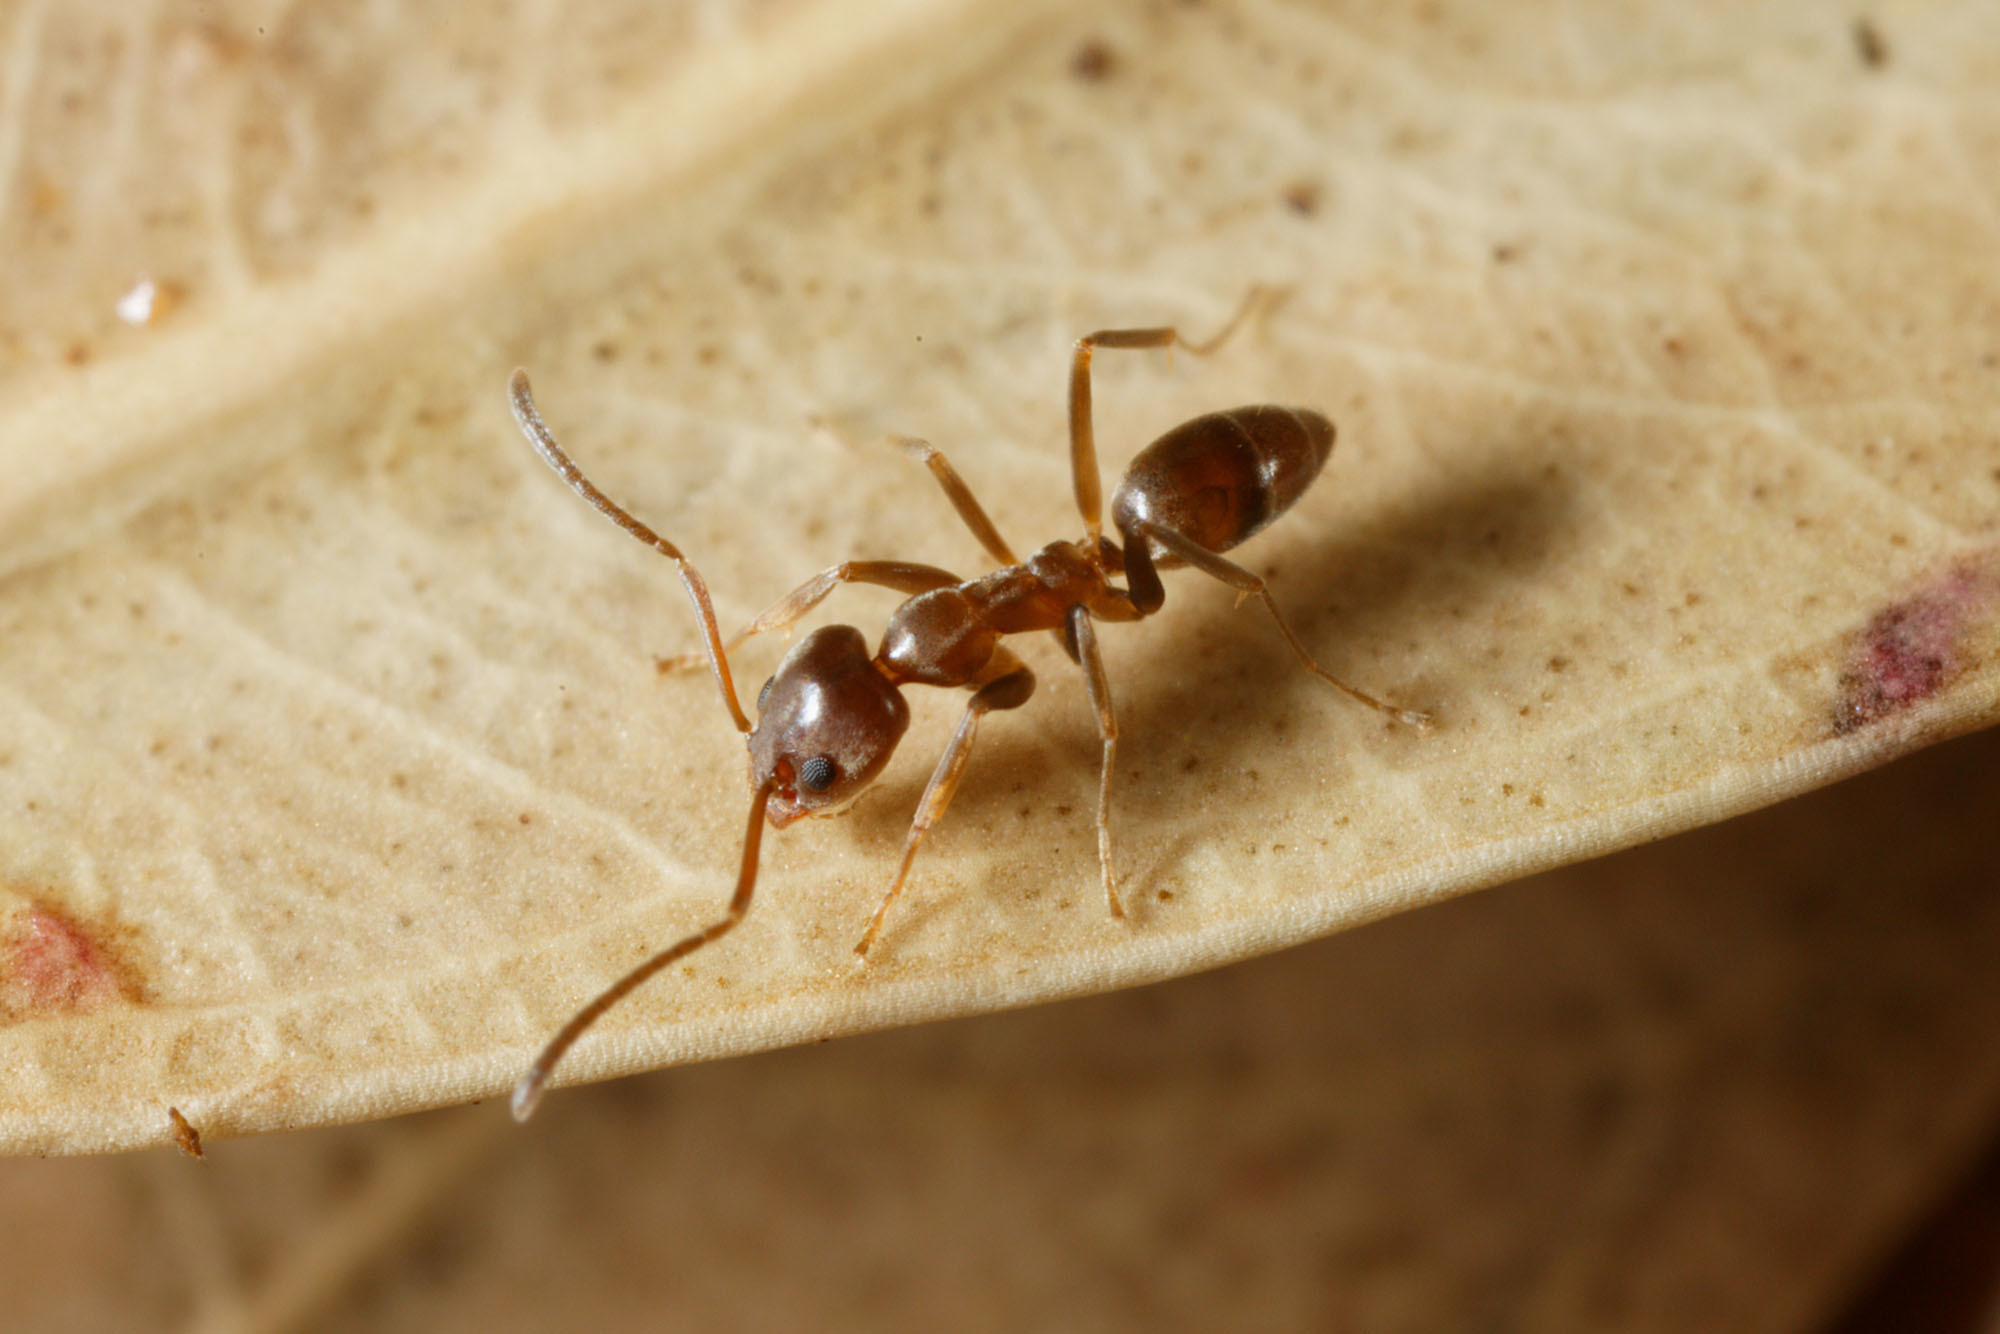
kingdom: Animalia
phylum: Arthropoda
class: Insecta
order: Hymenoptera
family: Formicidae
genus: Linepithema
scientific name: Linepithema humile
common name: Argentine ant
